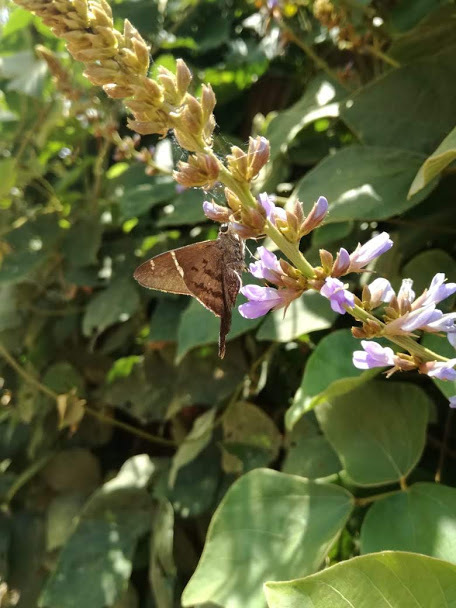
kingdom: Animalia
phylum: Arthropoda
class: Insecta
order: Lepidoptera
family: Hesperiidae
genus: Urbanus
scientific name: Urbanus teleus
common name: Teleus longtail
